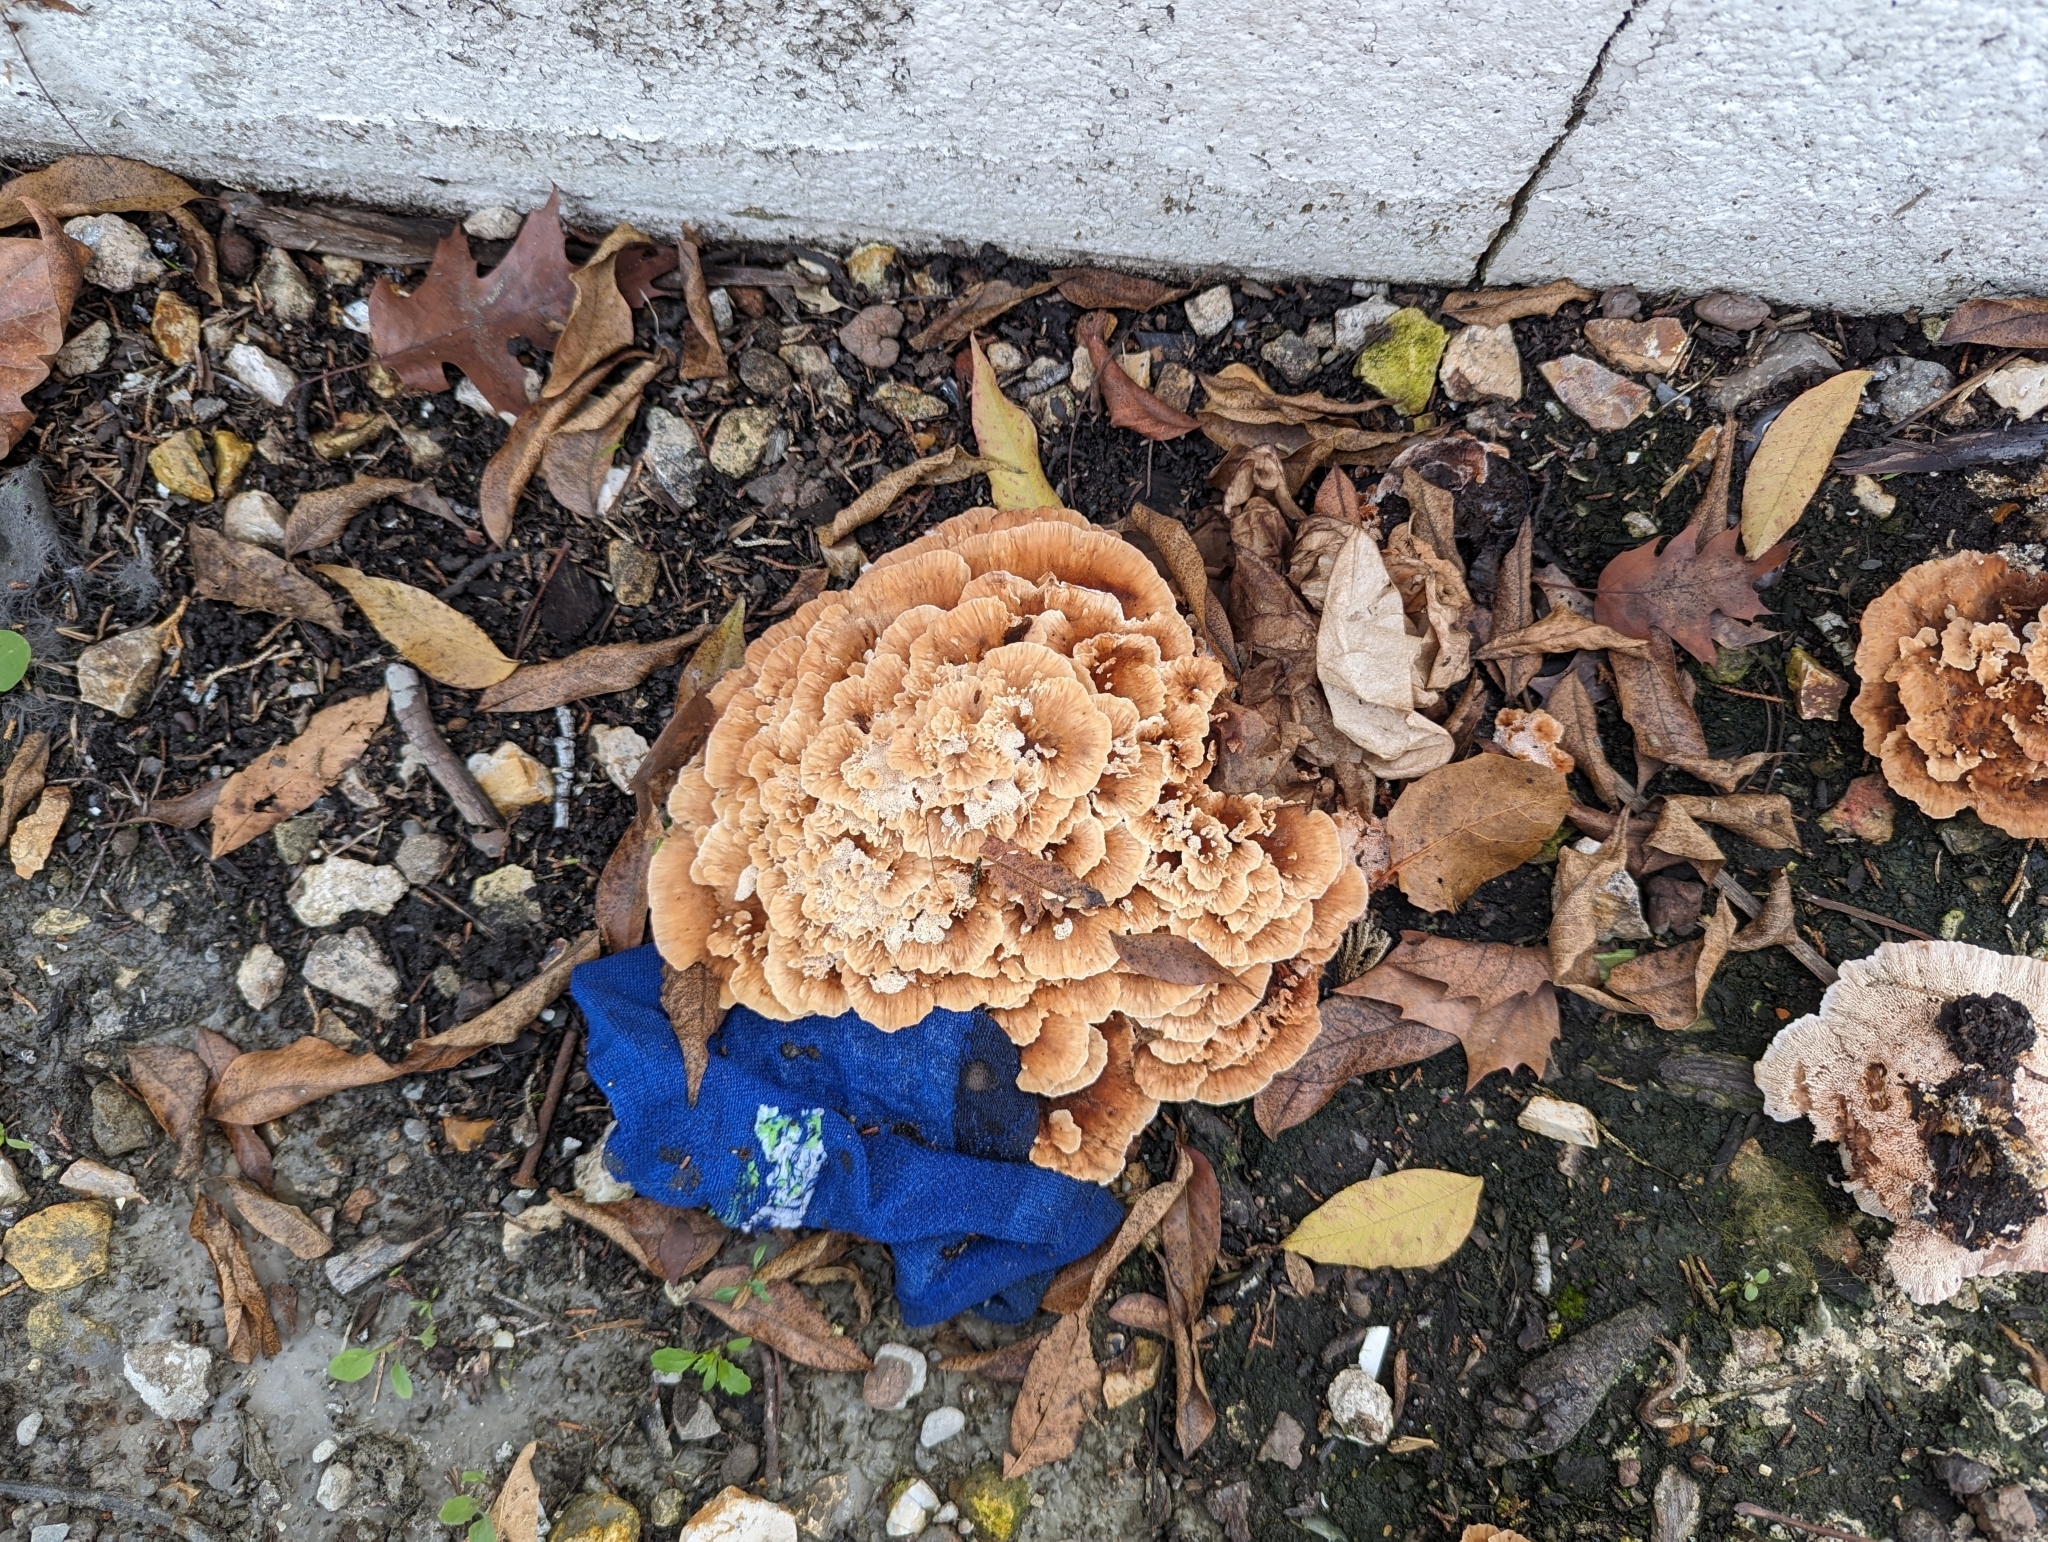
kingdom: Fungi
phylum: Basidiomycota
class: Agaricomycetes
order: Polyporales
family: Podoscyphaceae
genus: Abortiporus
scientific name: Abortiporus biennis
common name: Blushing rosette
